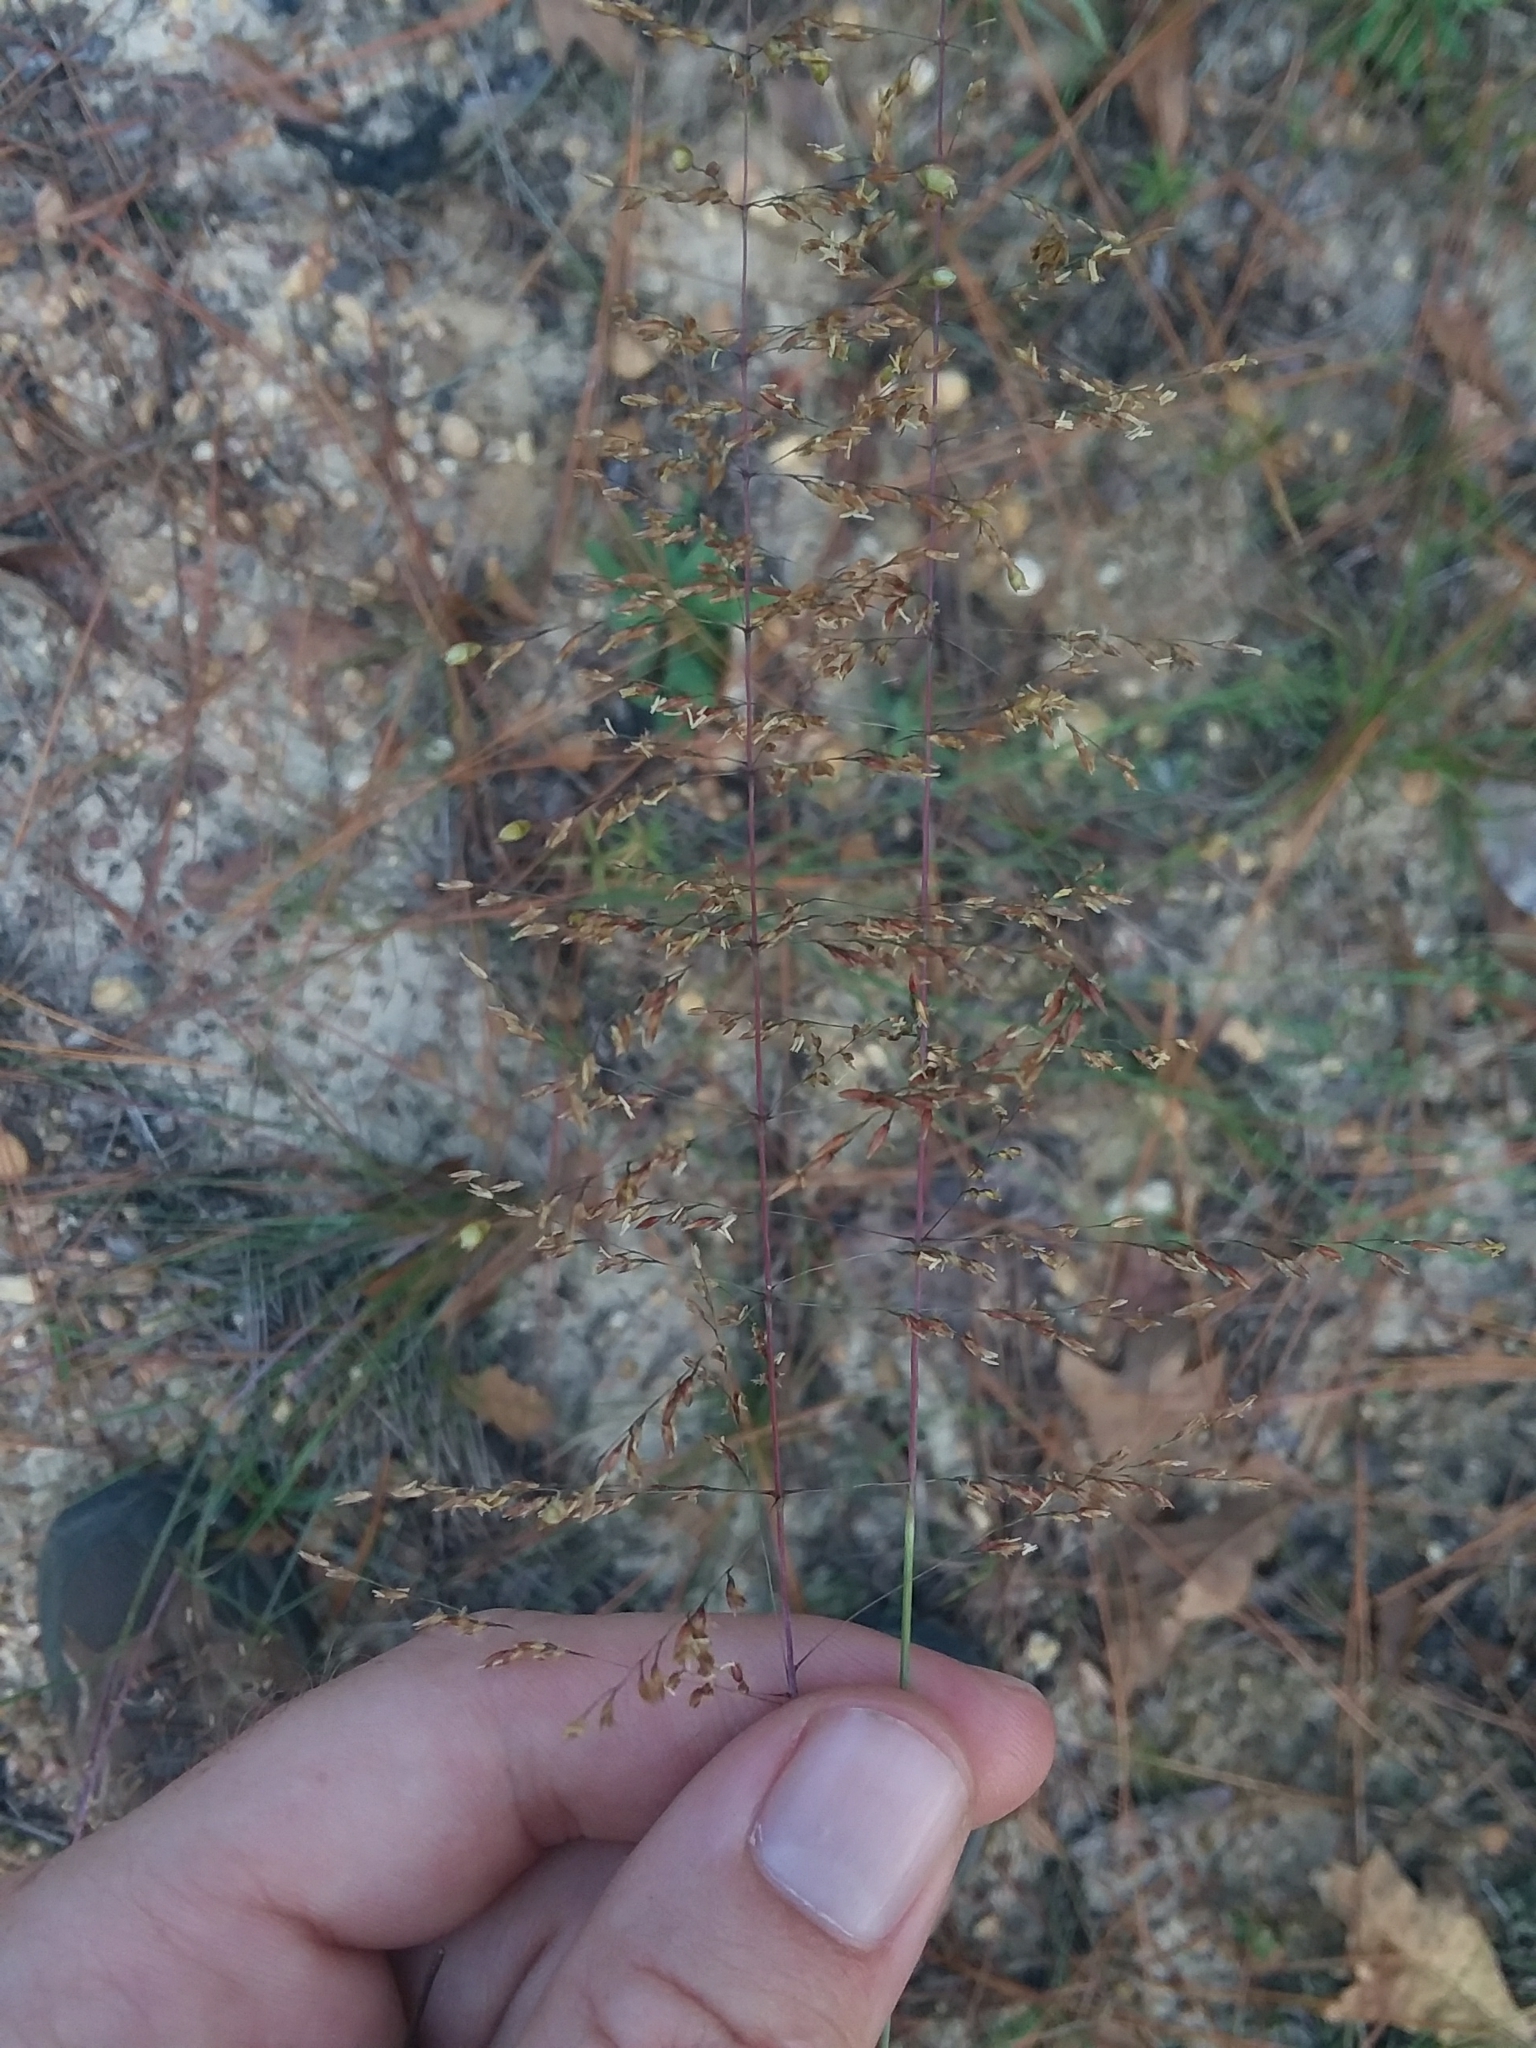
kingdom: Plantae
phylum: Tracheophyta
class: Liliopsida
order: Poales
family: Poaceae
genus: Sporobolus
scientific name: Sporobolus junceus
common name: Lizard grass
